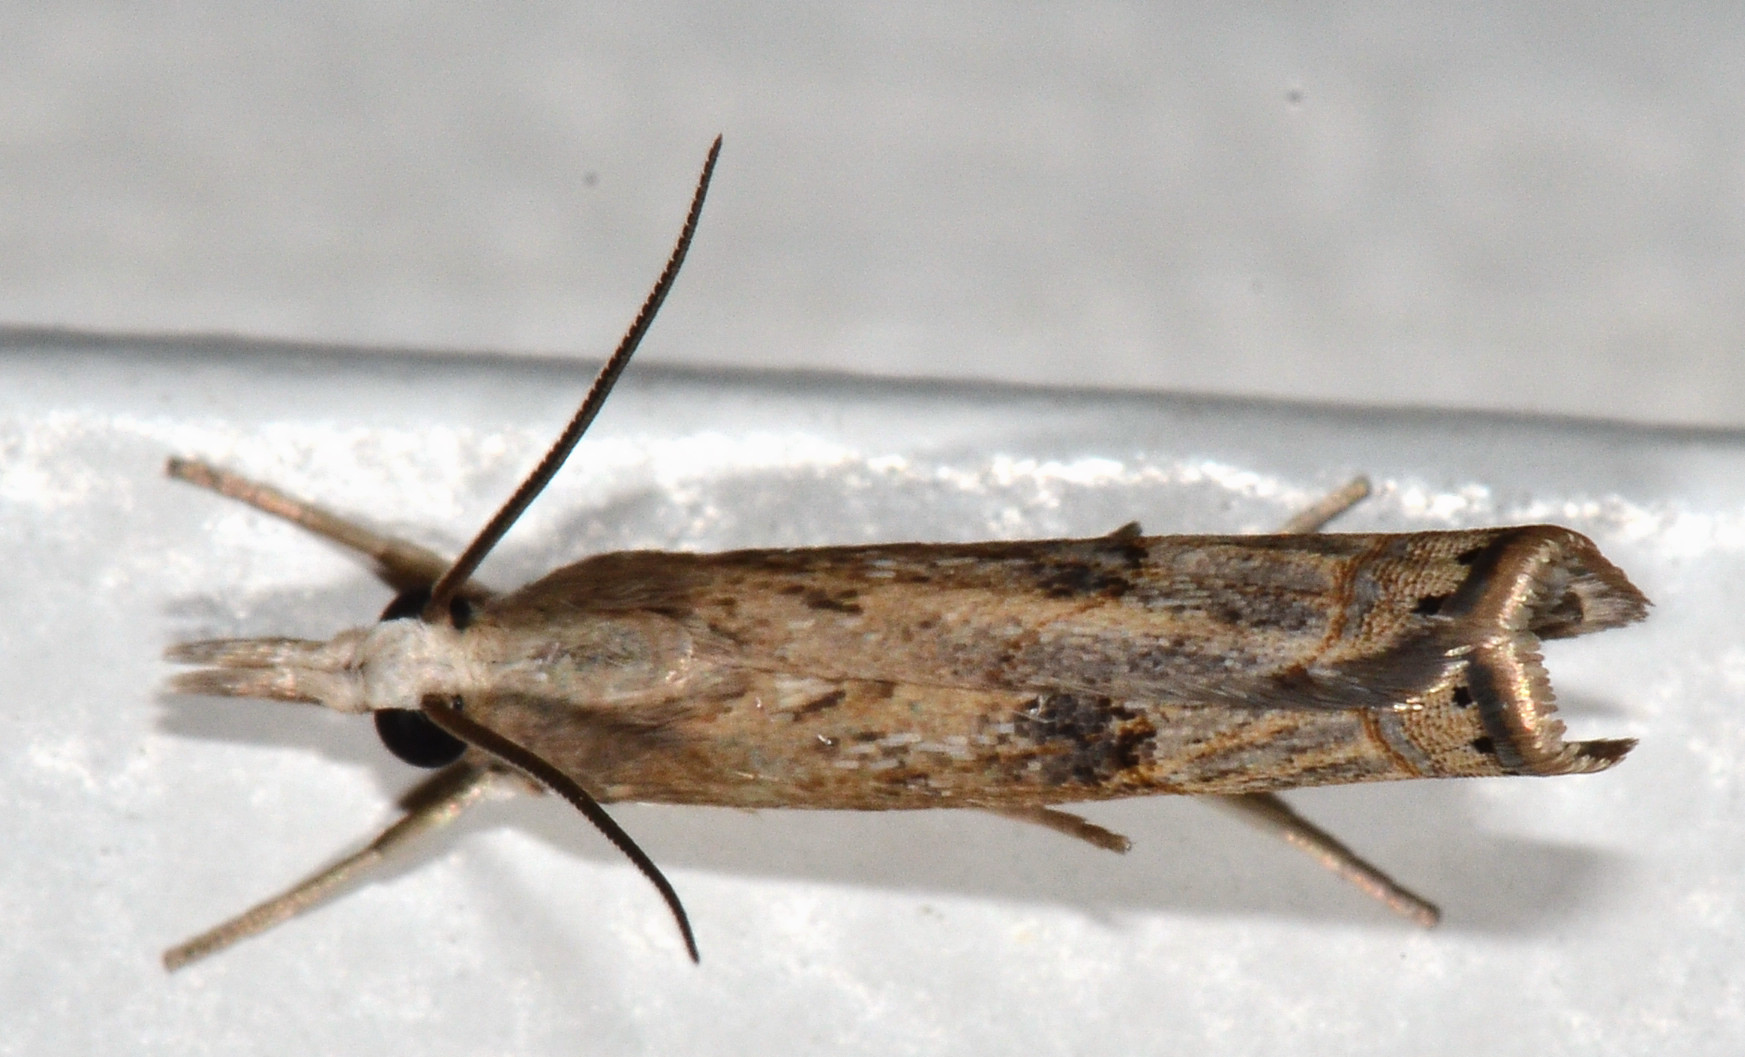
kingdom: Animalia
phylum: Arthropoda
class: Insecta
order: Lepidoptera
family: Crambidae
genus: Parapediasia
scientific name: Parapediasia teterellus
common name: Bluegrass webworm moth
